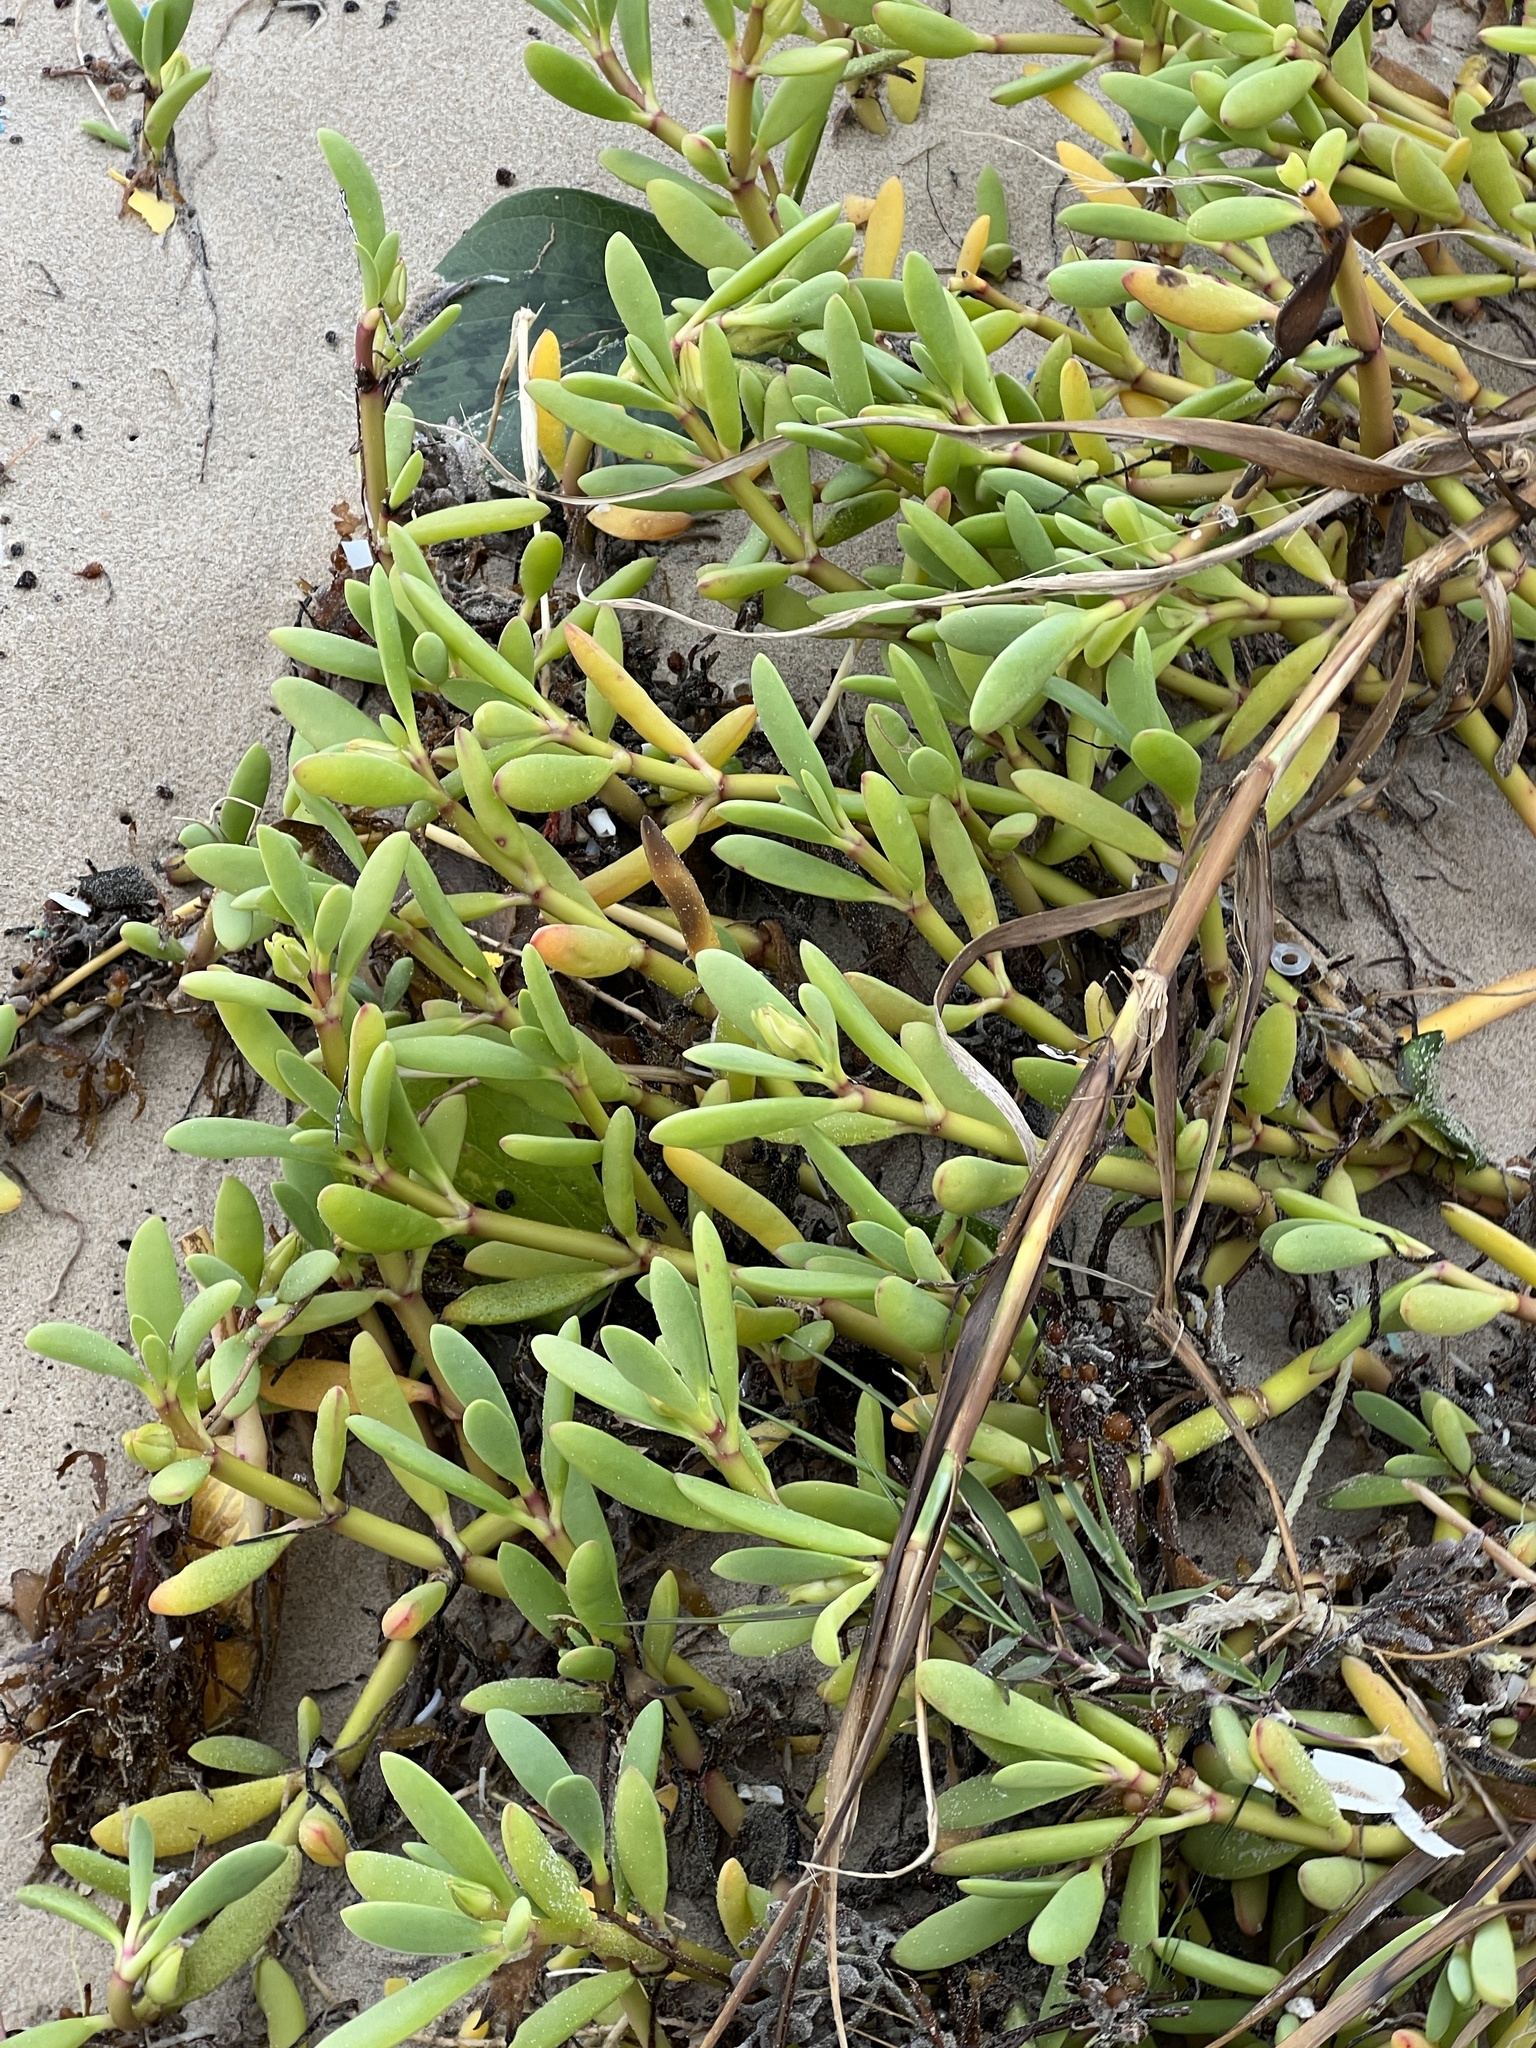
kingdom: Plantae
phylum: Tracheophyta
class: Magnoliopsida
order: Caryophyllales
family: Aizoaceae
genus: Sesuvium
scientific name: Sesuvium portulacastrum
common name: Sea-purslane
